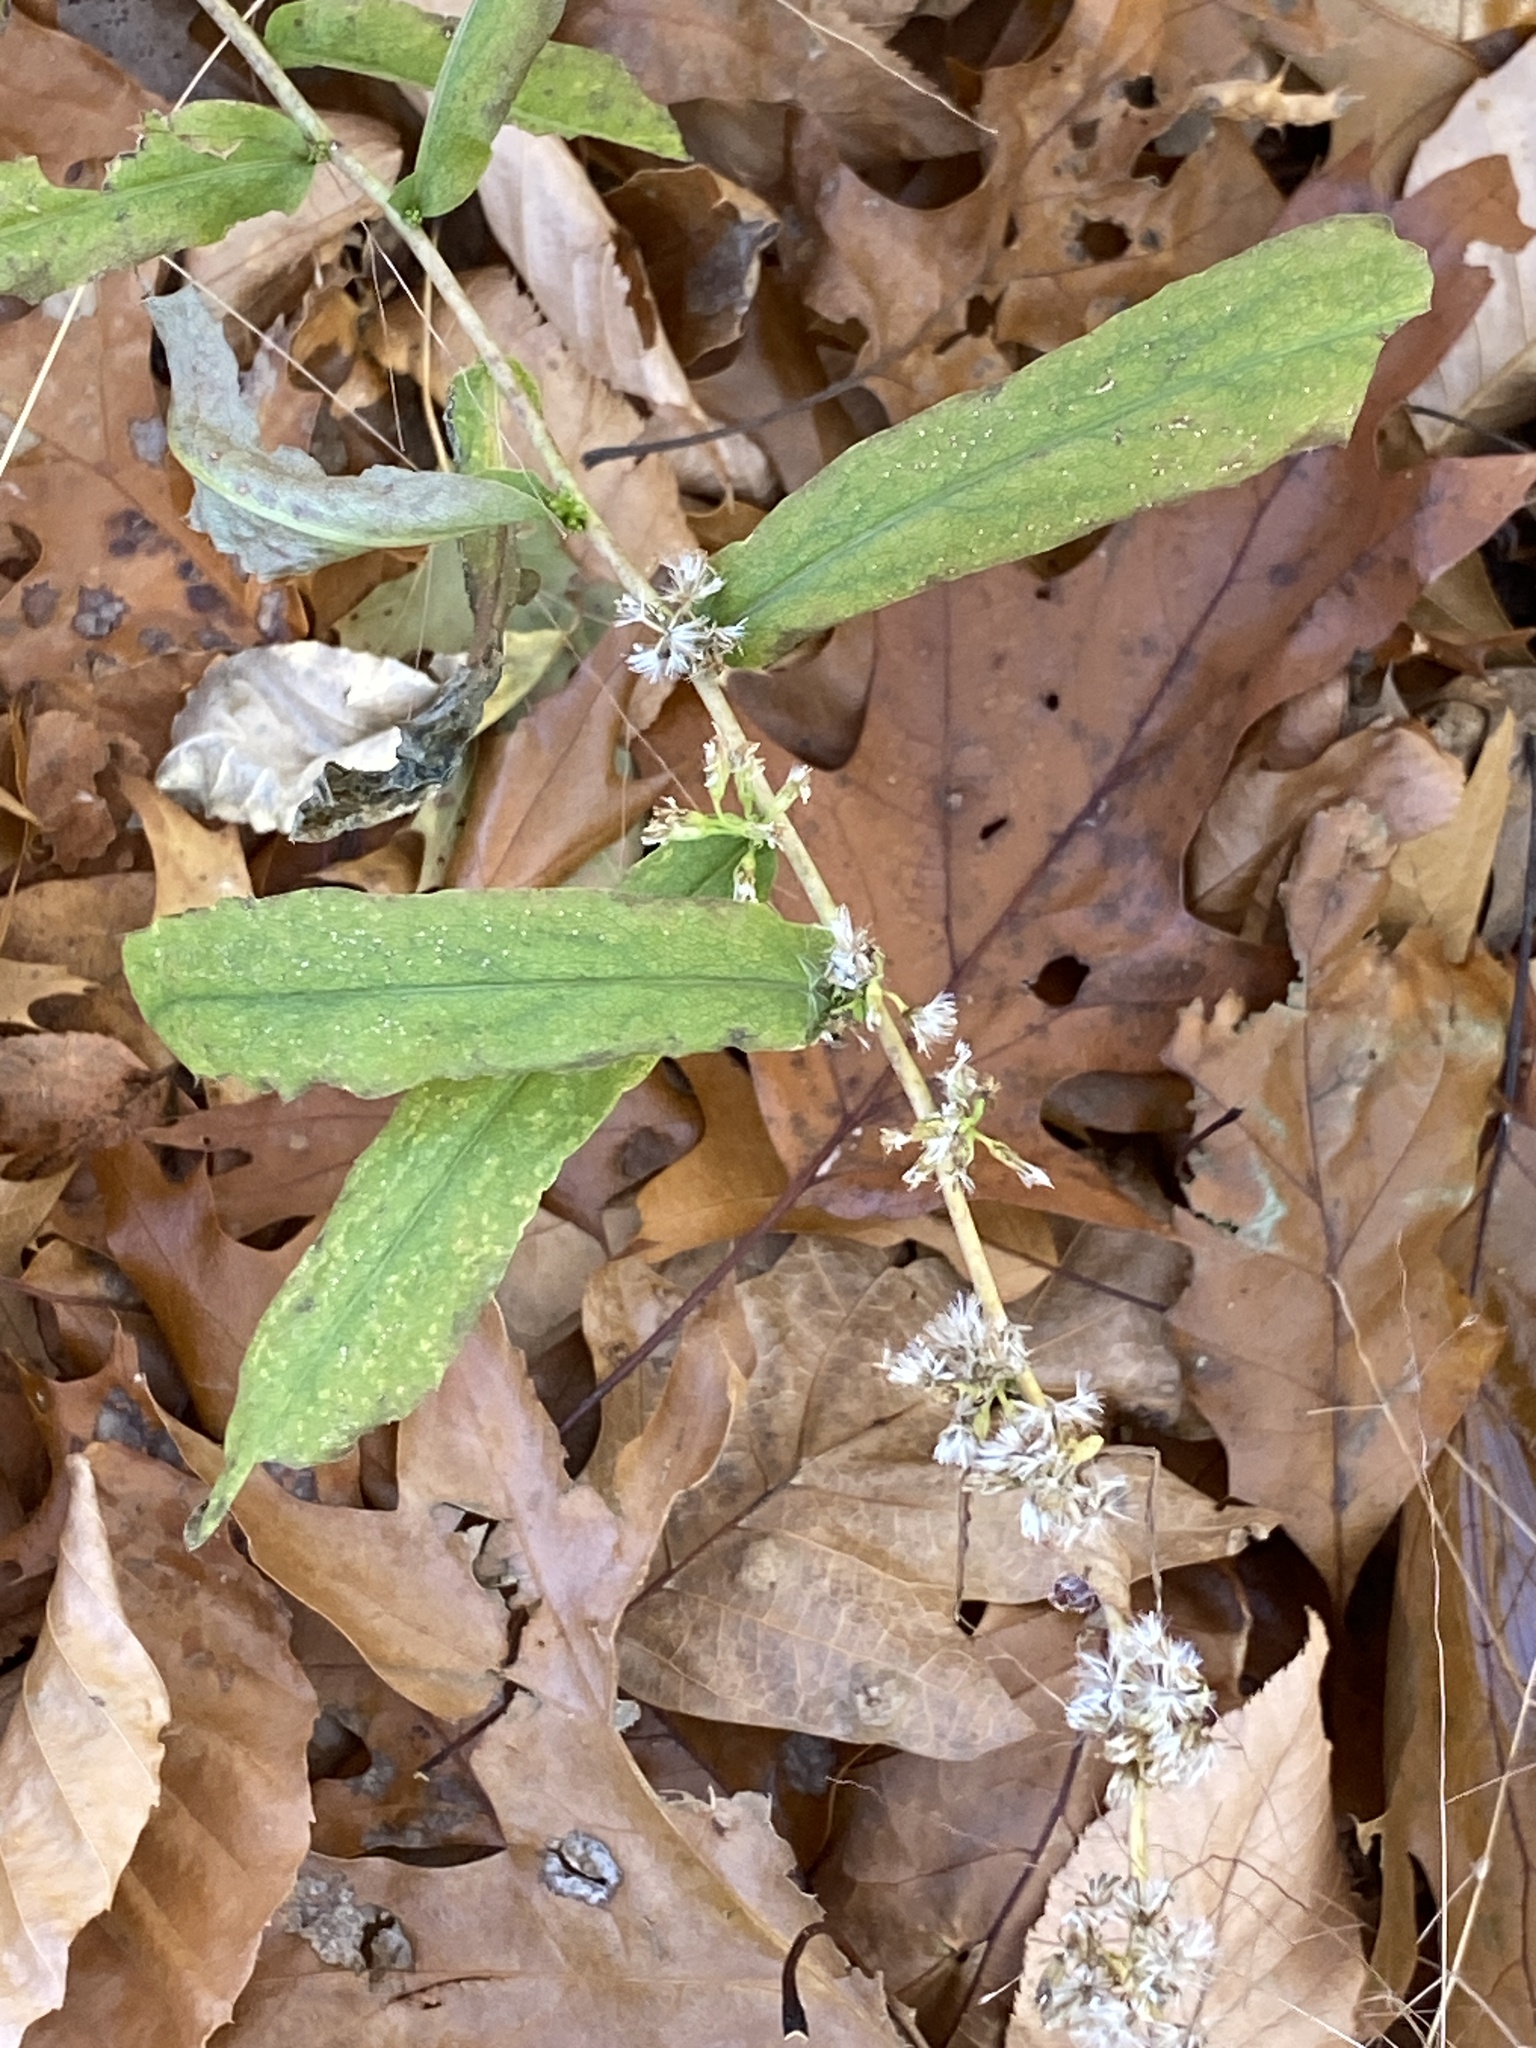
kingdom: Plantae
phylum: Tracheophyta
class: Magnoliopsida
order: Asterales
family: Asteraceae
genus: Solidago
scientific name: Solidago caesia
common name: Woodland goldenrod
